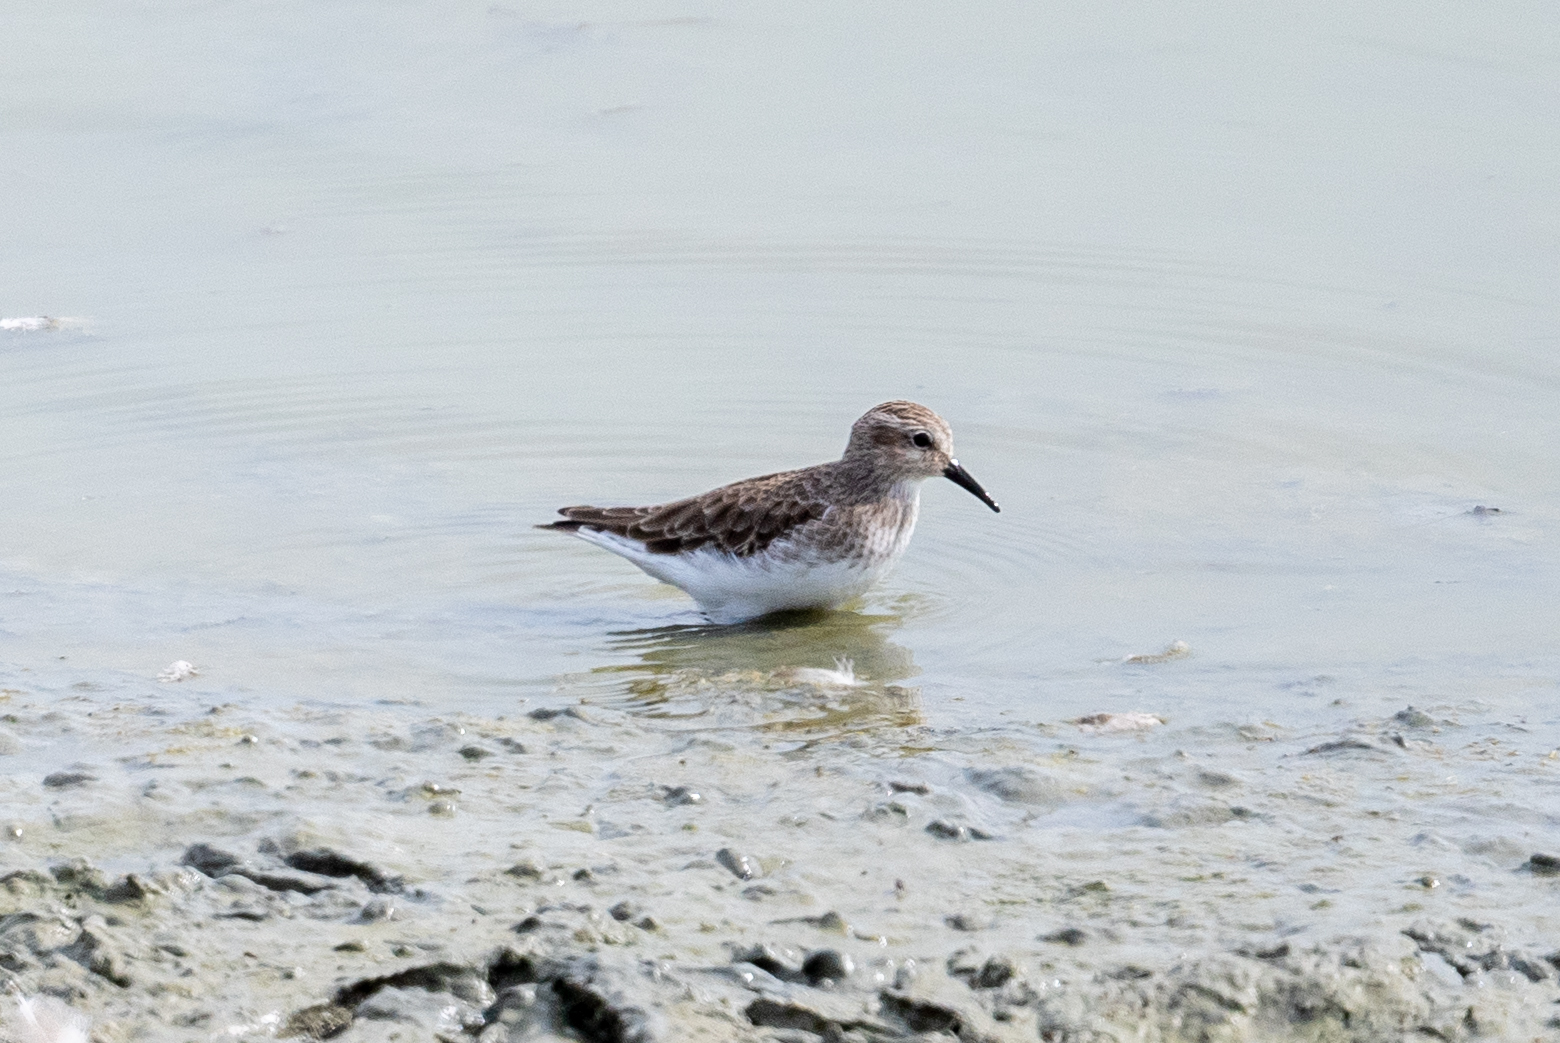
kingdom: Animalia
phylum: Chordata
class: Aves
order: Charadriiformes
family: Scolopacidae
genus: Calidris
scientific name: Calidris minutilla
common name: Least sandpiper
